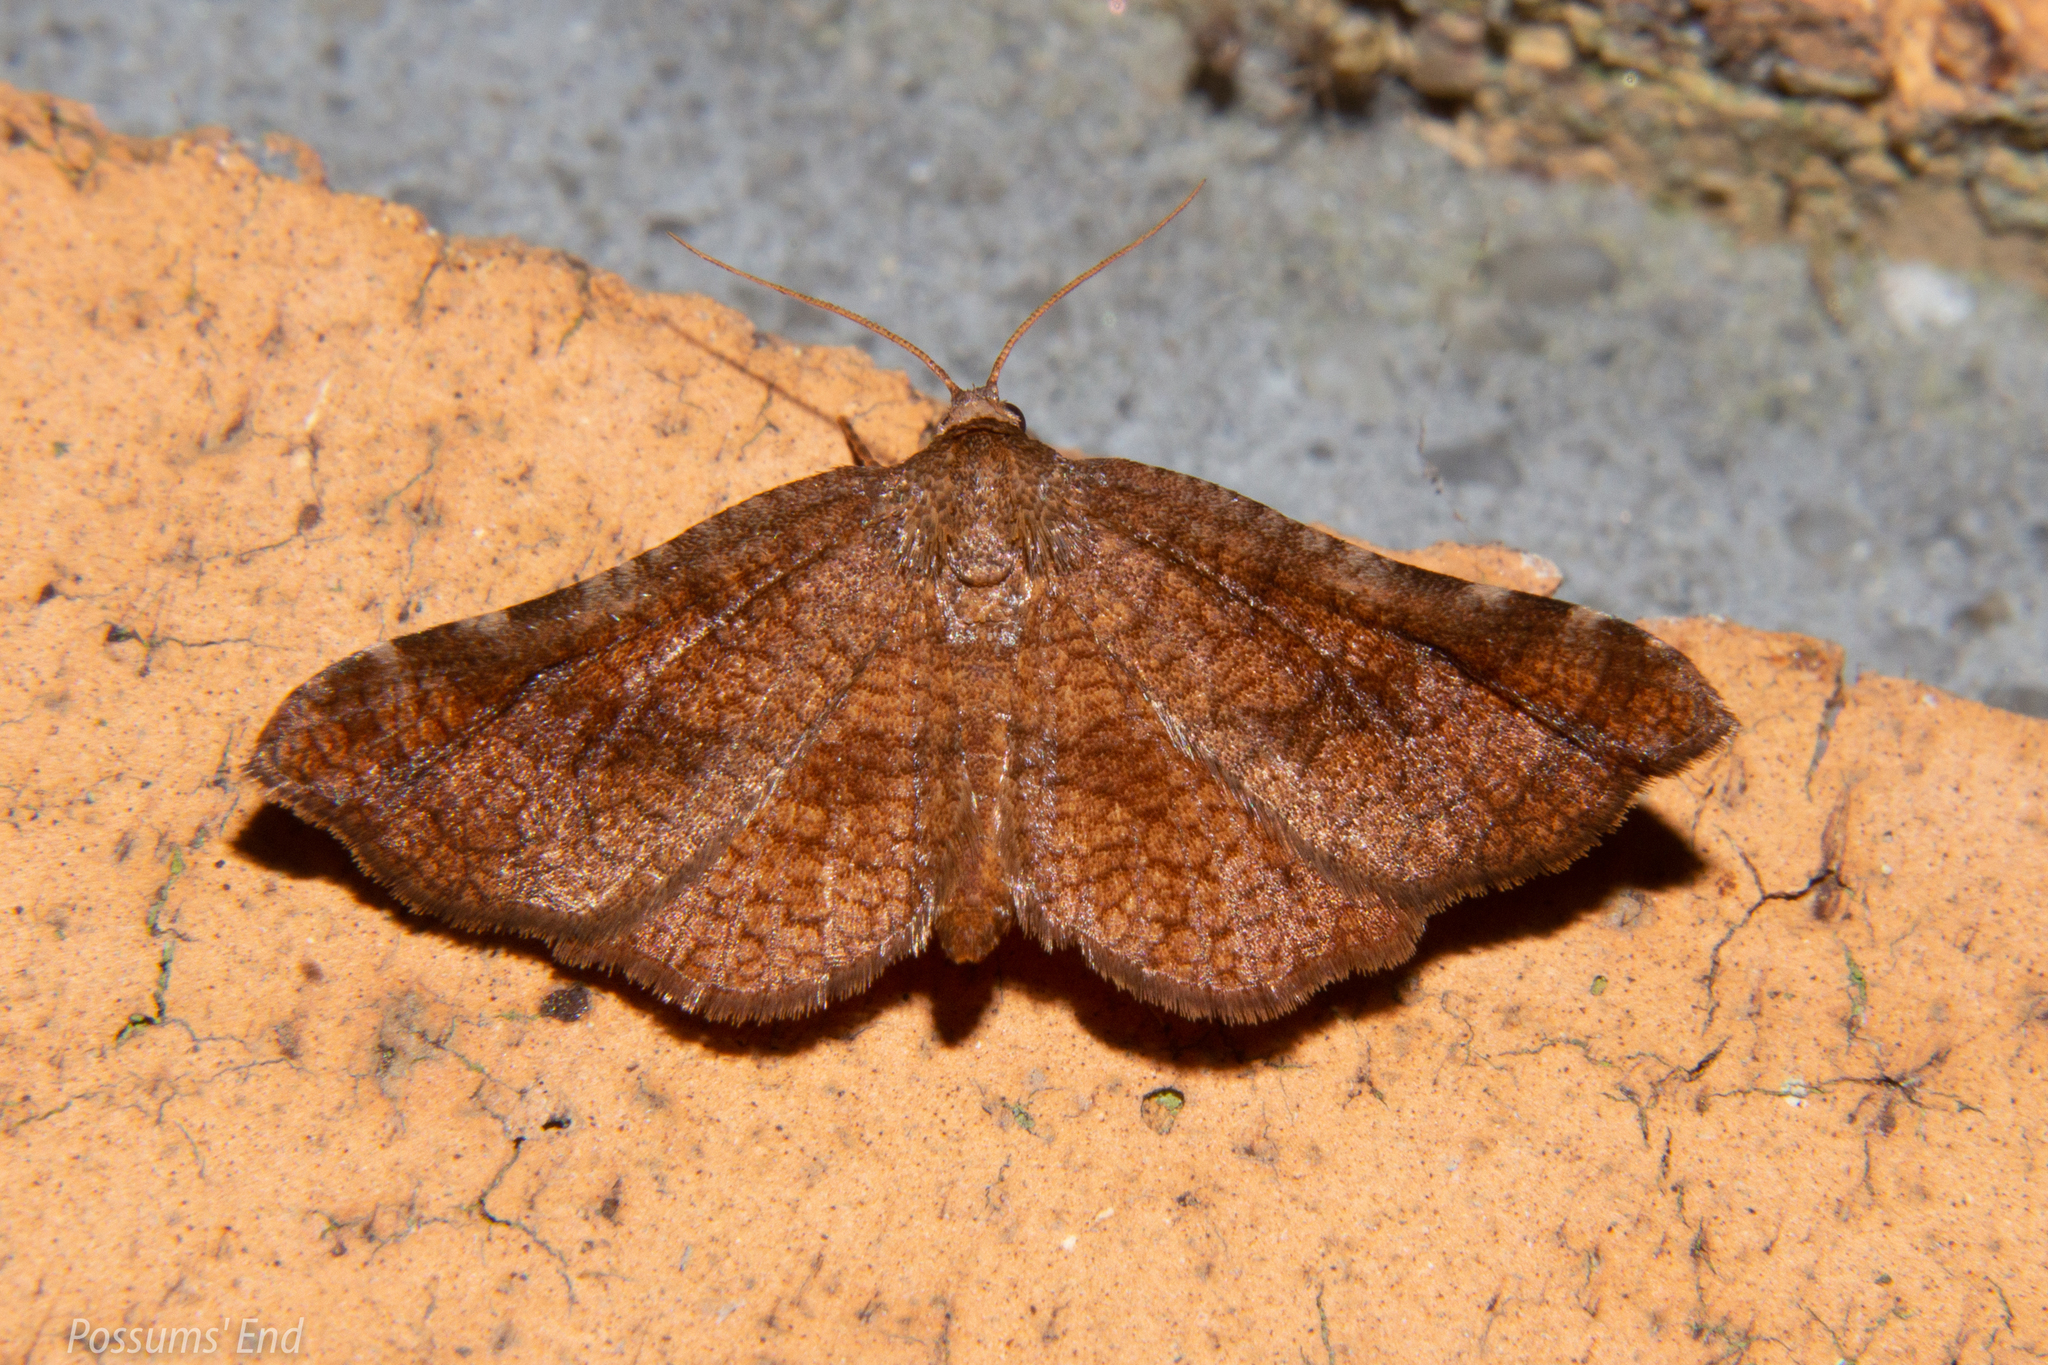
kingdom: Animalia
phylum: Arthropoda
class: Insecta
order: Lepidoptera
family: Thyrididae
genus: Morova
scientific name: Morova subfasciata
